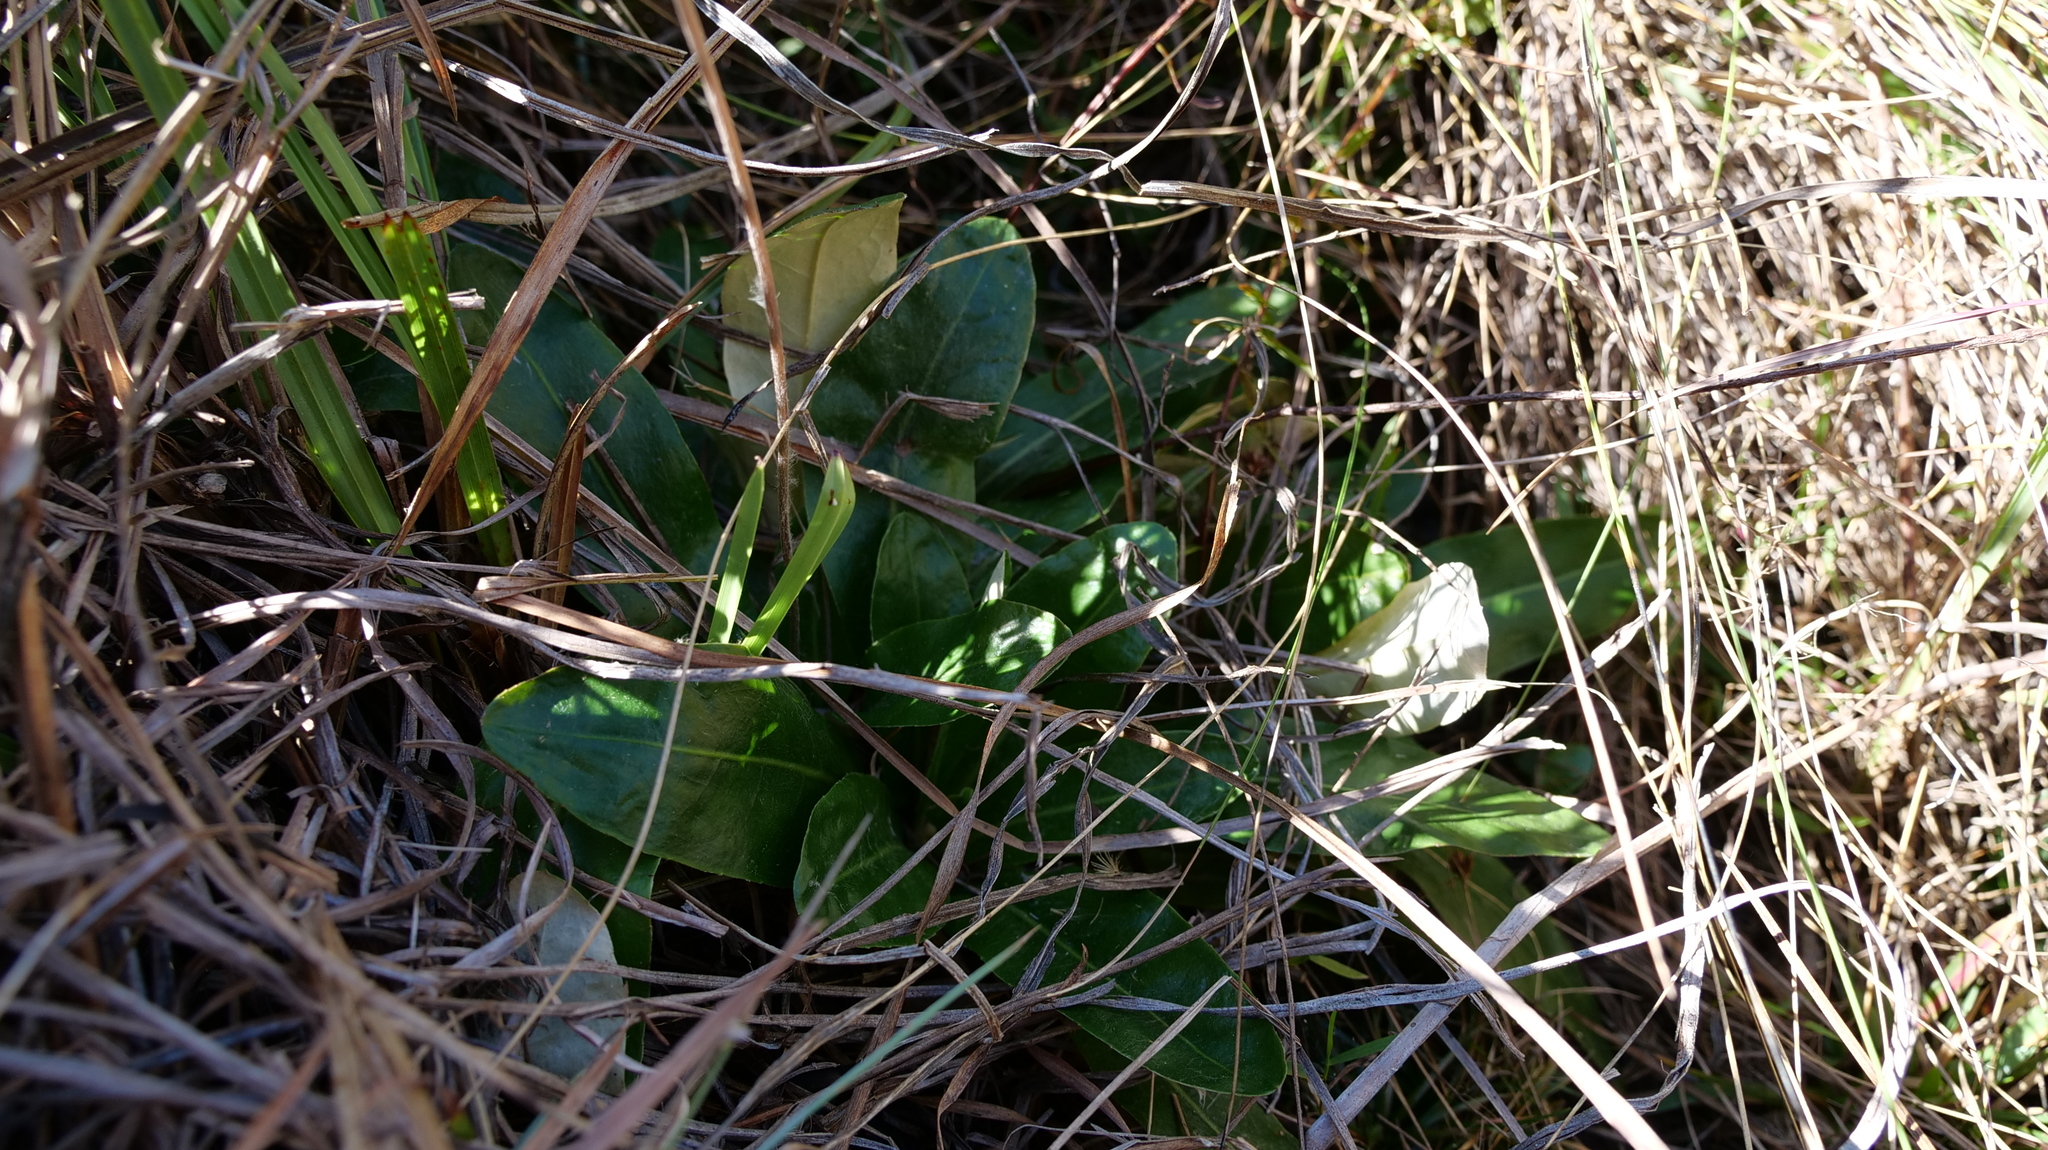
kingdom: Plantae
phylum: Tracheophyta
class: Magnoliopsida
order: Asterales
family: Asteraceae
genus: Chaptalia
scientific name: Chaptalia tomentosa
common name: Woolly sunbonnet
